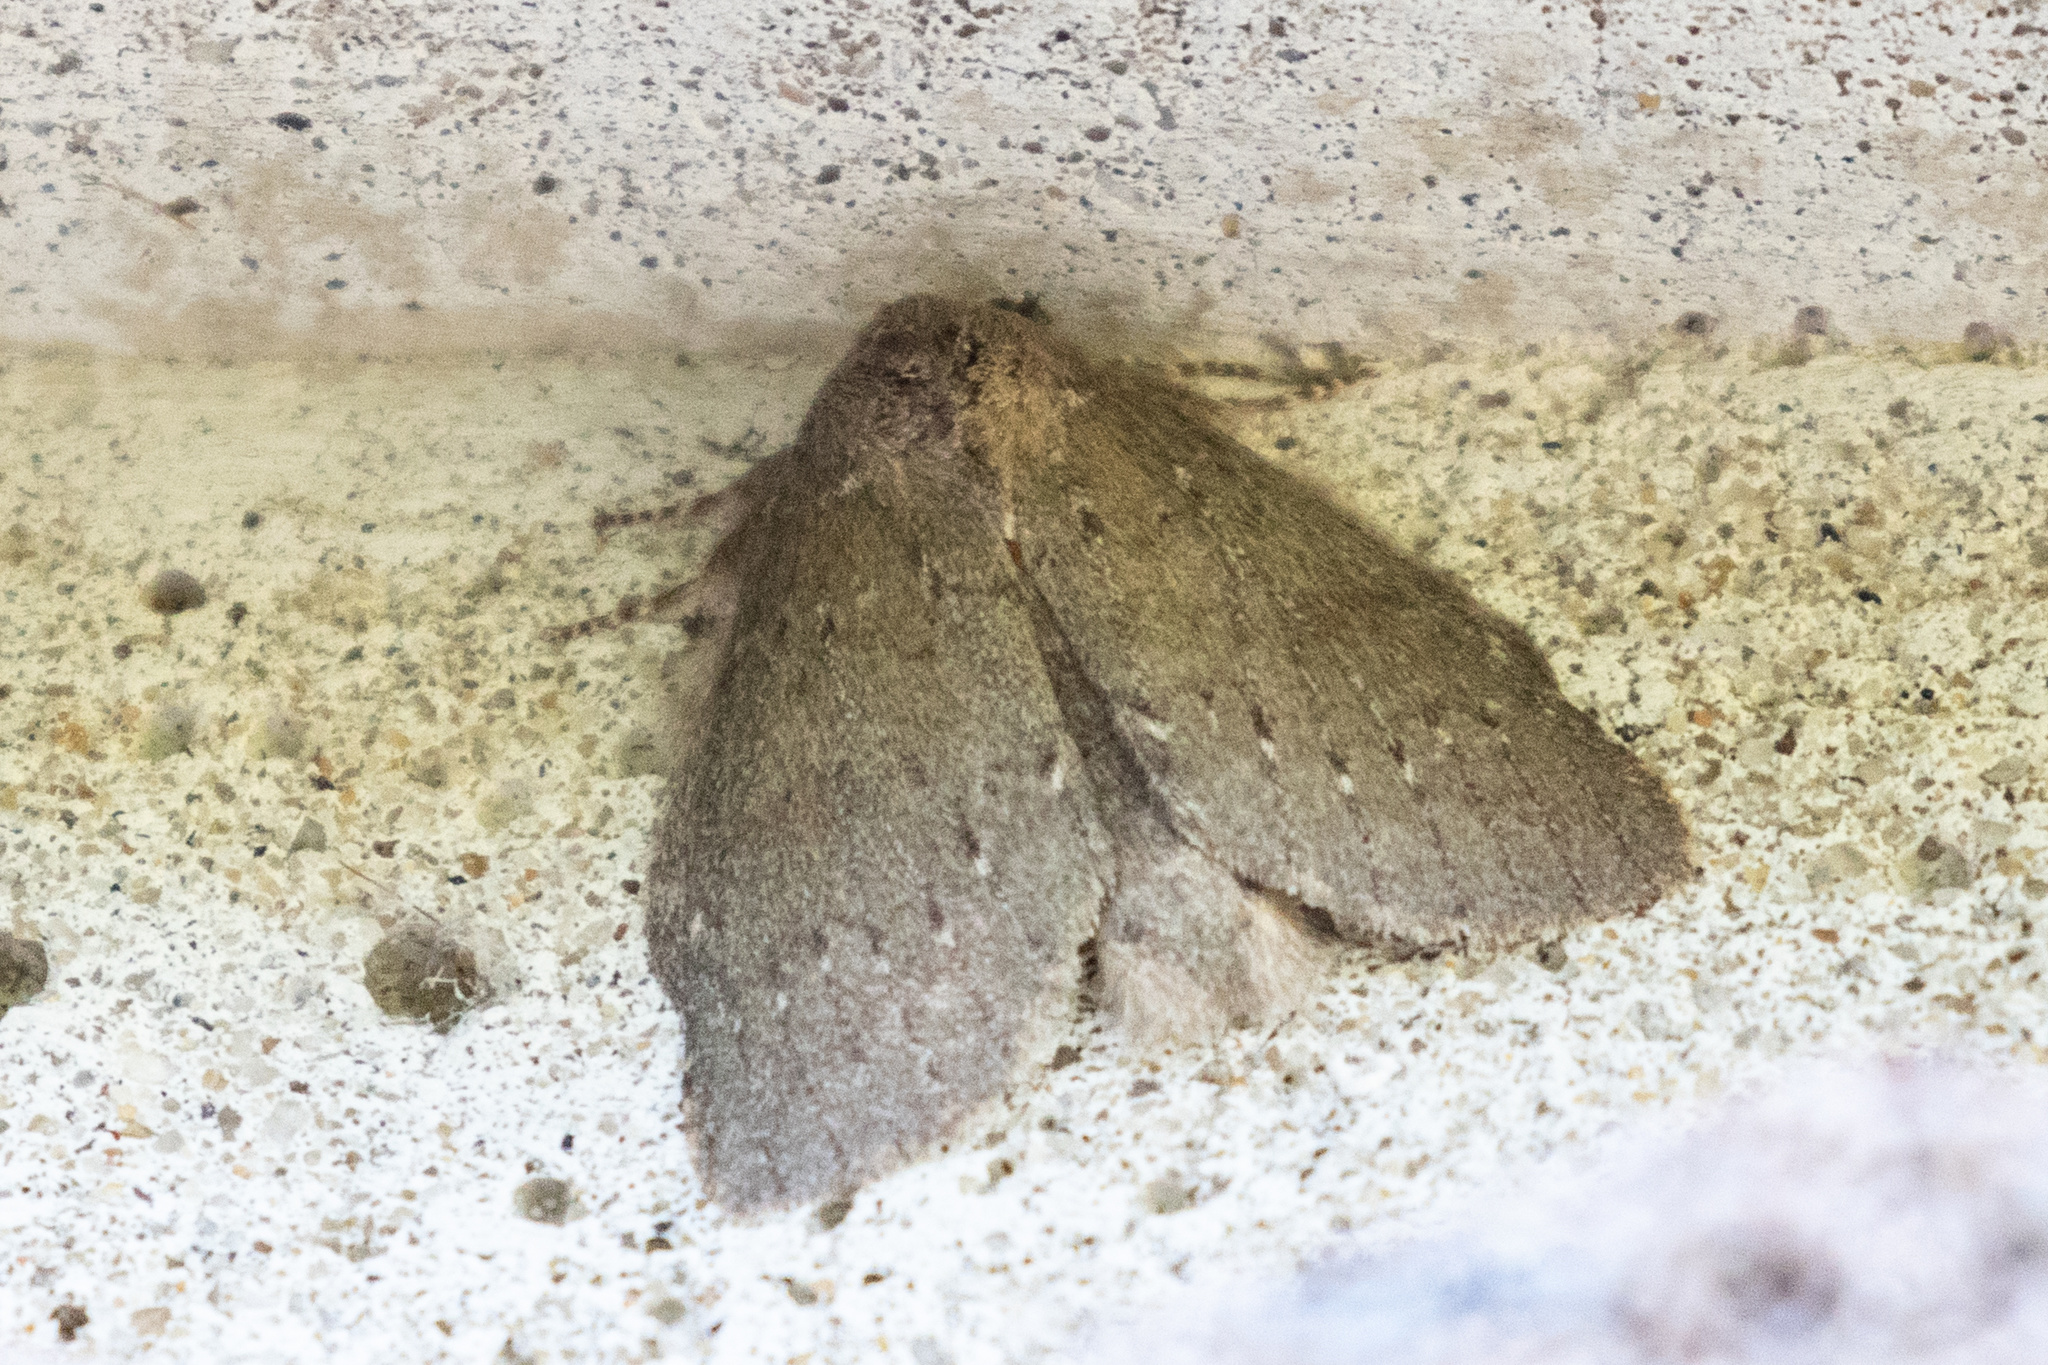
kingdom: Animalia
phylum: Arthropoda
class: Insecta
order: Lepidoptera
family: Notodontidae
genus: Misogada
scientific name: Misogada unicolor
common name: Drab prominent
